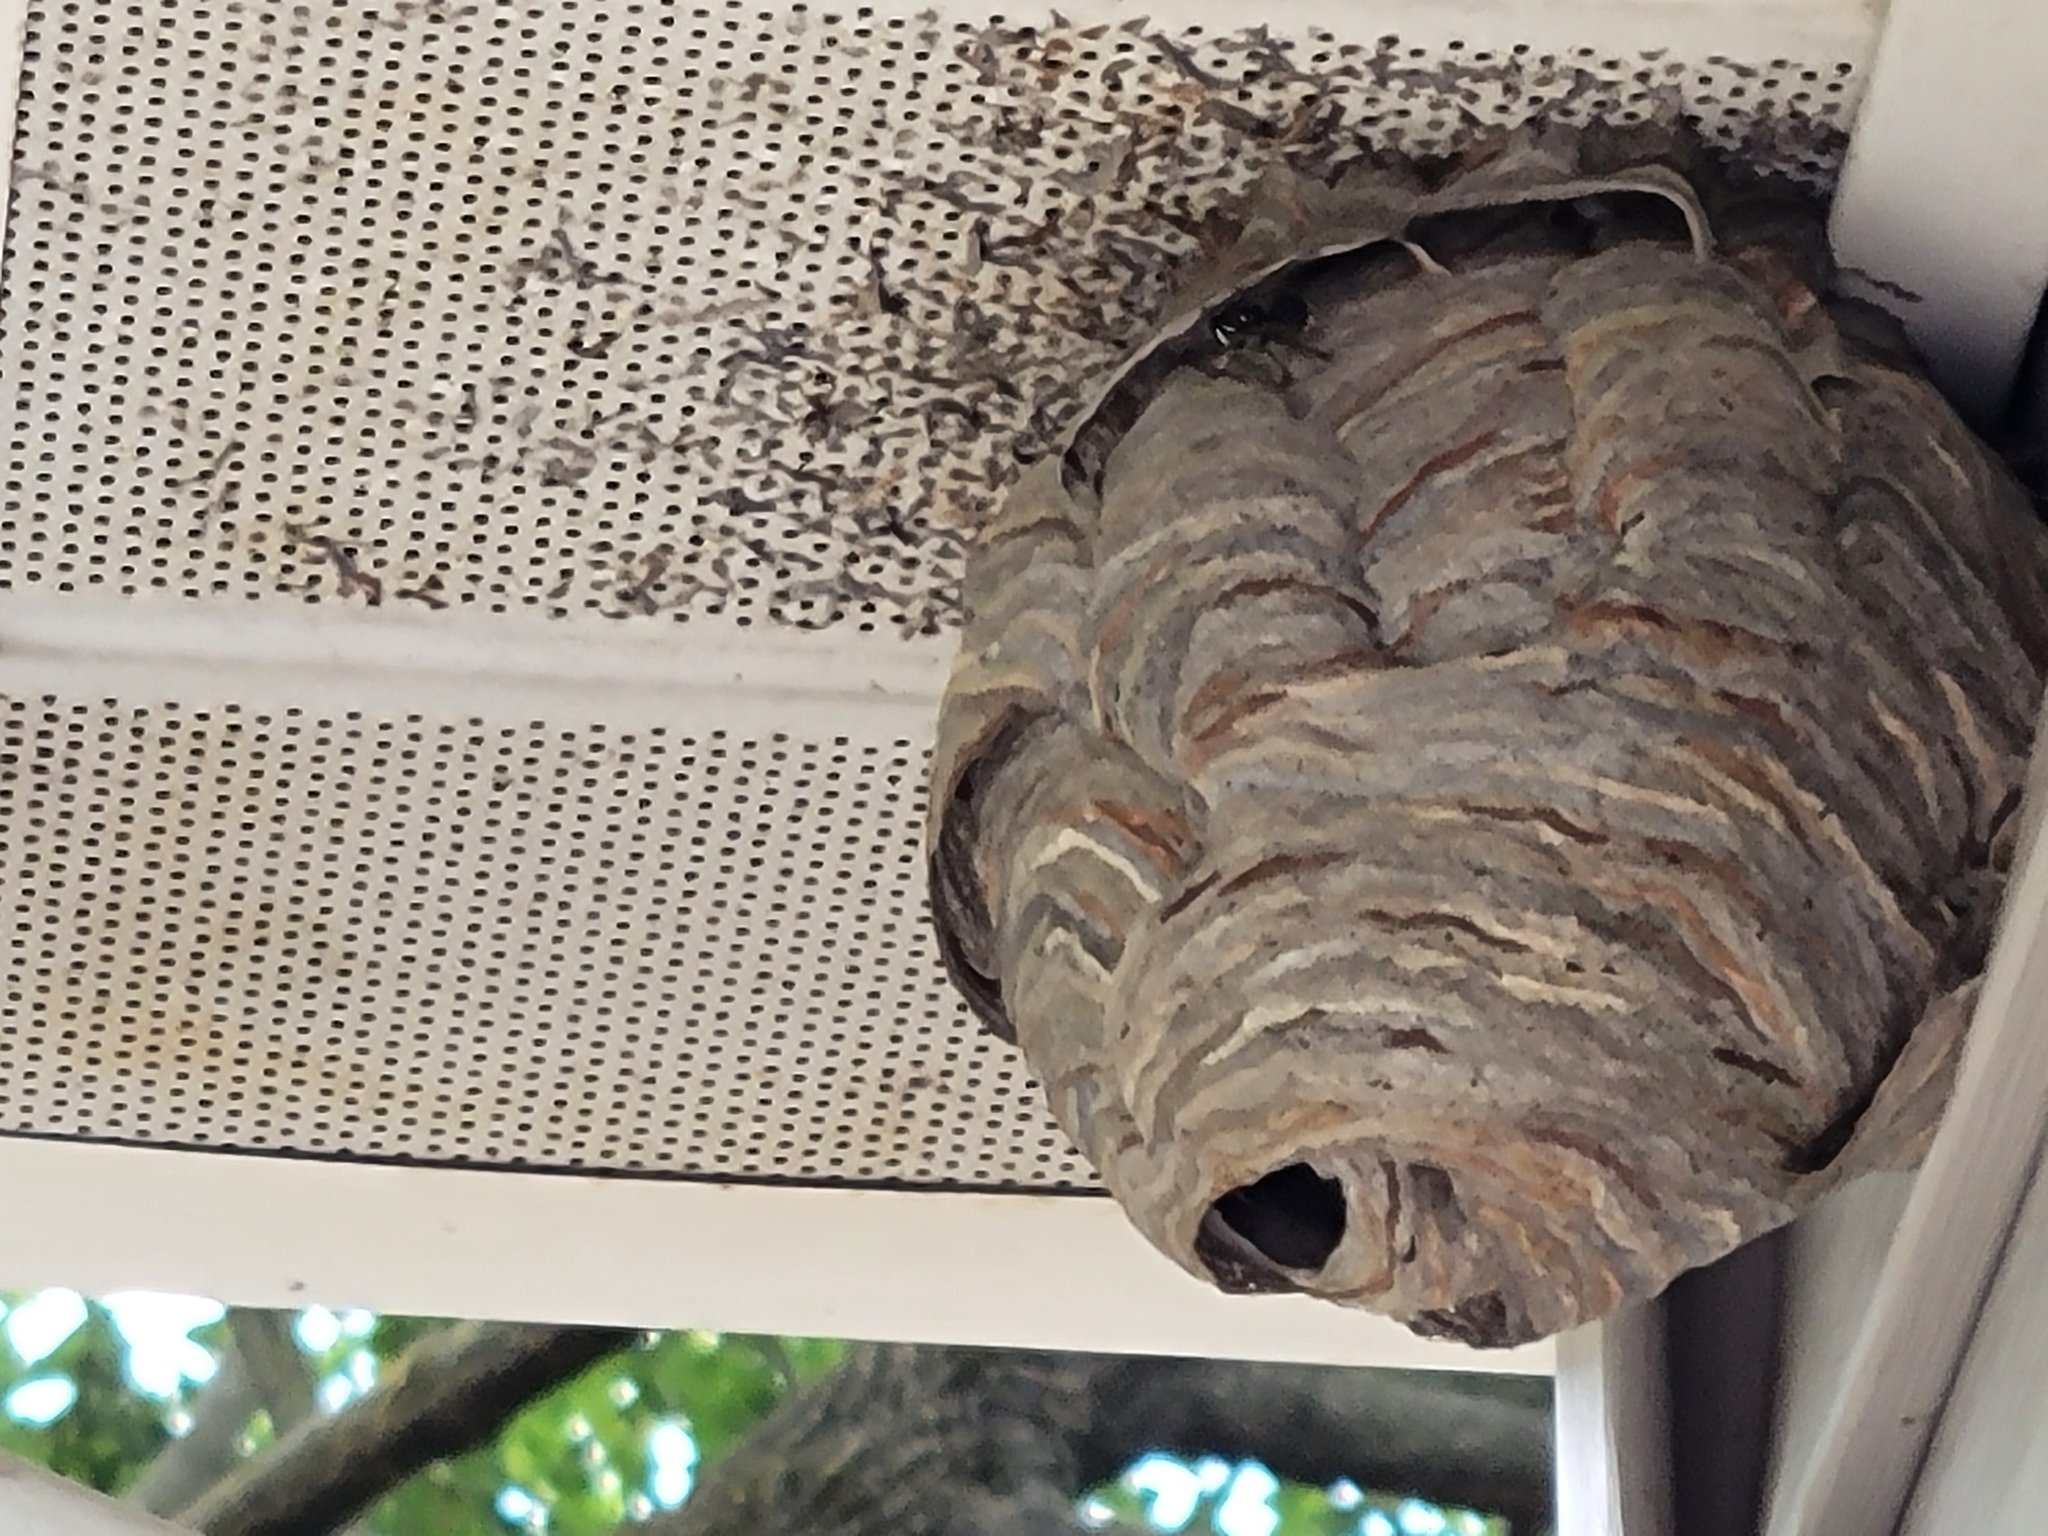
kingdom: Animalia
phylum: Arthropoda
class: Insecta
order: Hymenoptera
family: Vespidae
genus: Dolichovespula
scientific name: Dolichovespula maculata
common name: Bald-faced hornet
